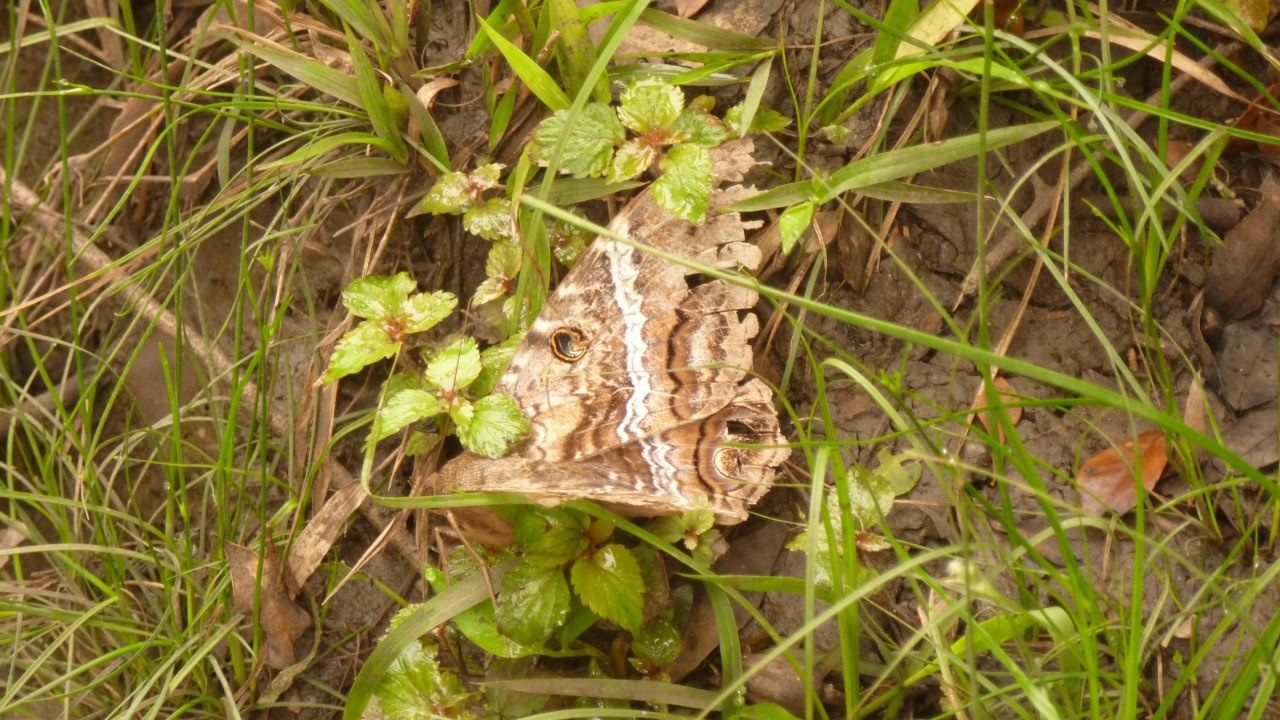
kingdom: Animalia
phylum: Arthropoda
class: Insecta
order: Lepidoptera
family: Erebidae
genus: Ascalapha
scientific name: Ascalapha odorata
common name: Black witch
